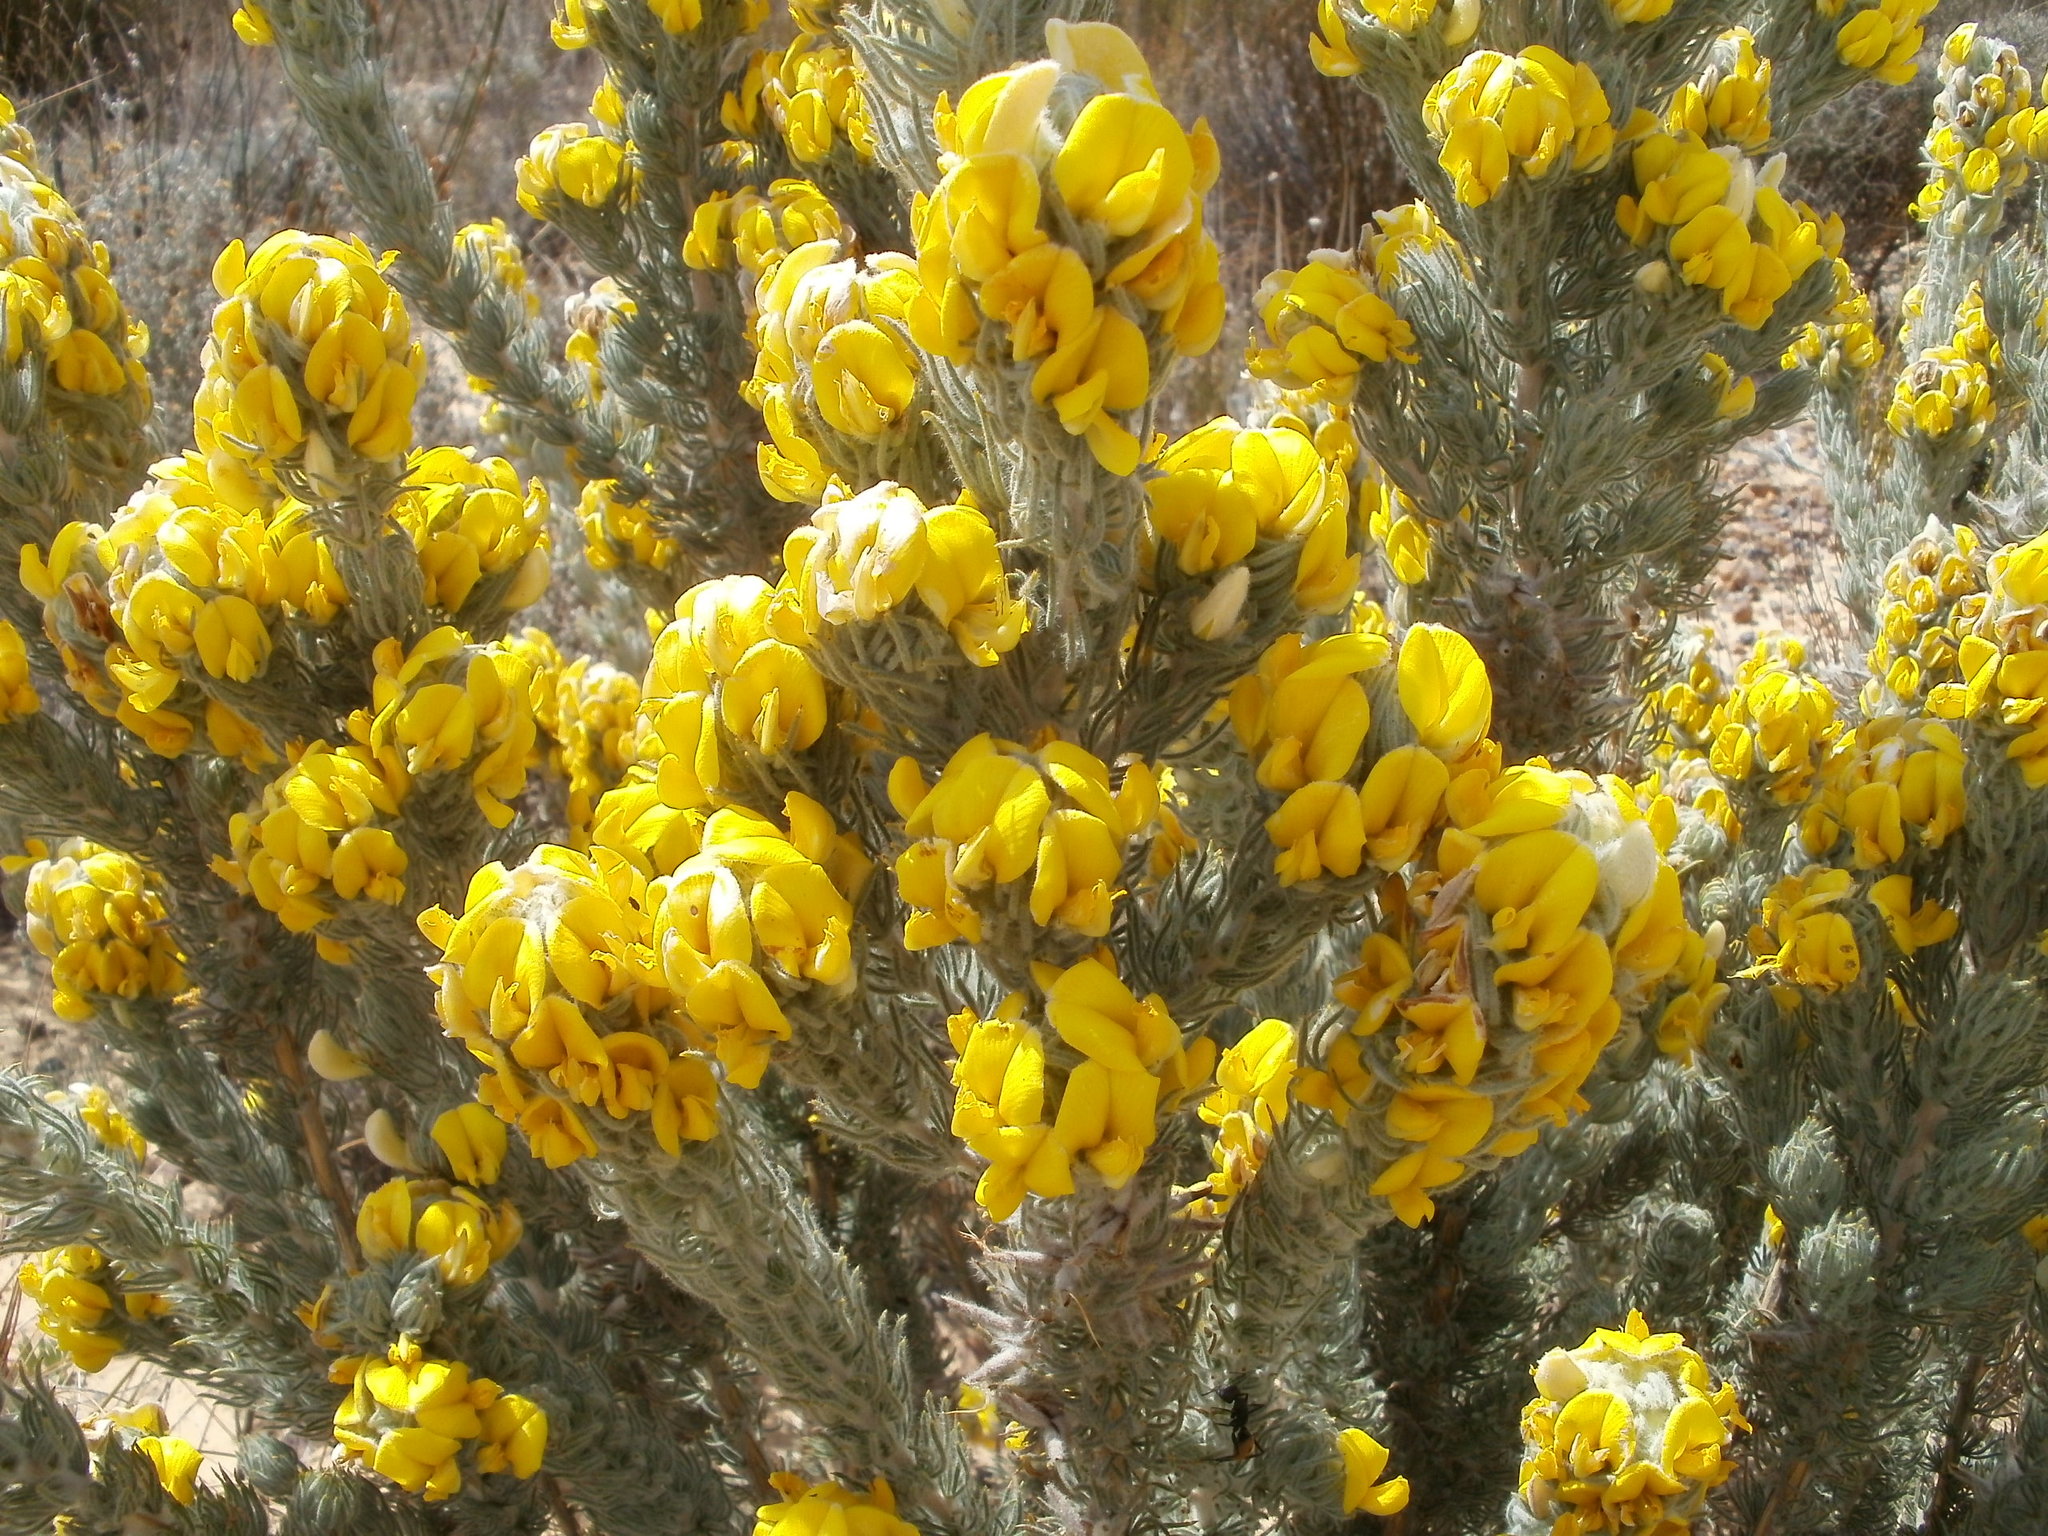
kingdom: Plantae
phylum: Tracheophyta
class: Magnoliopsida
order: Fabales
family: Fabaceae
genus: Aspalathus
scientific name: Aspalathus shawii
